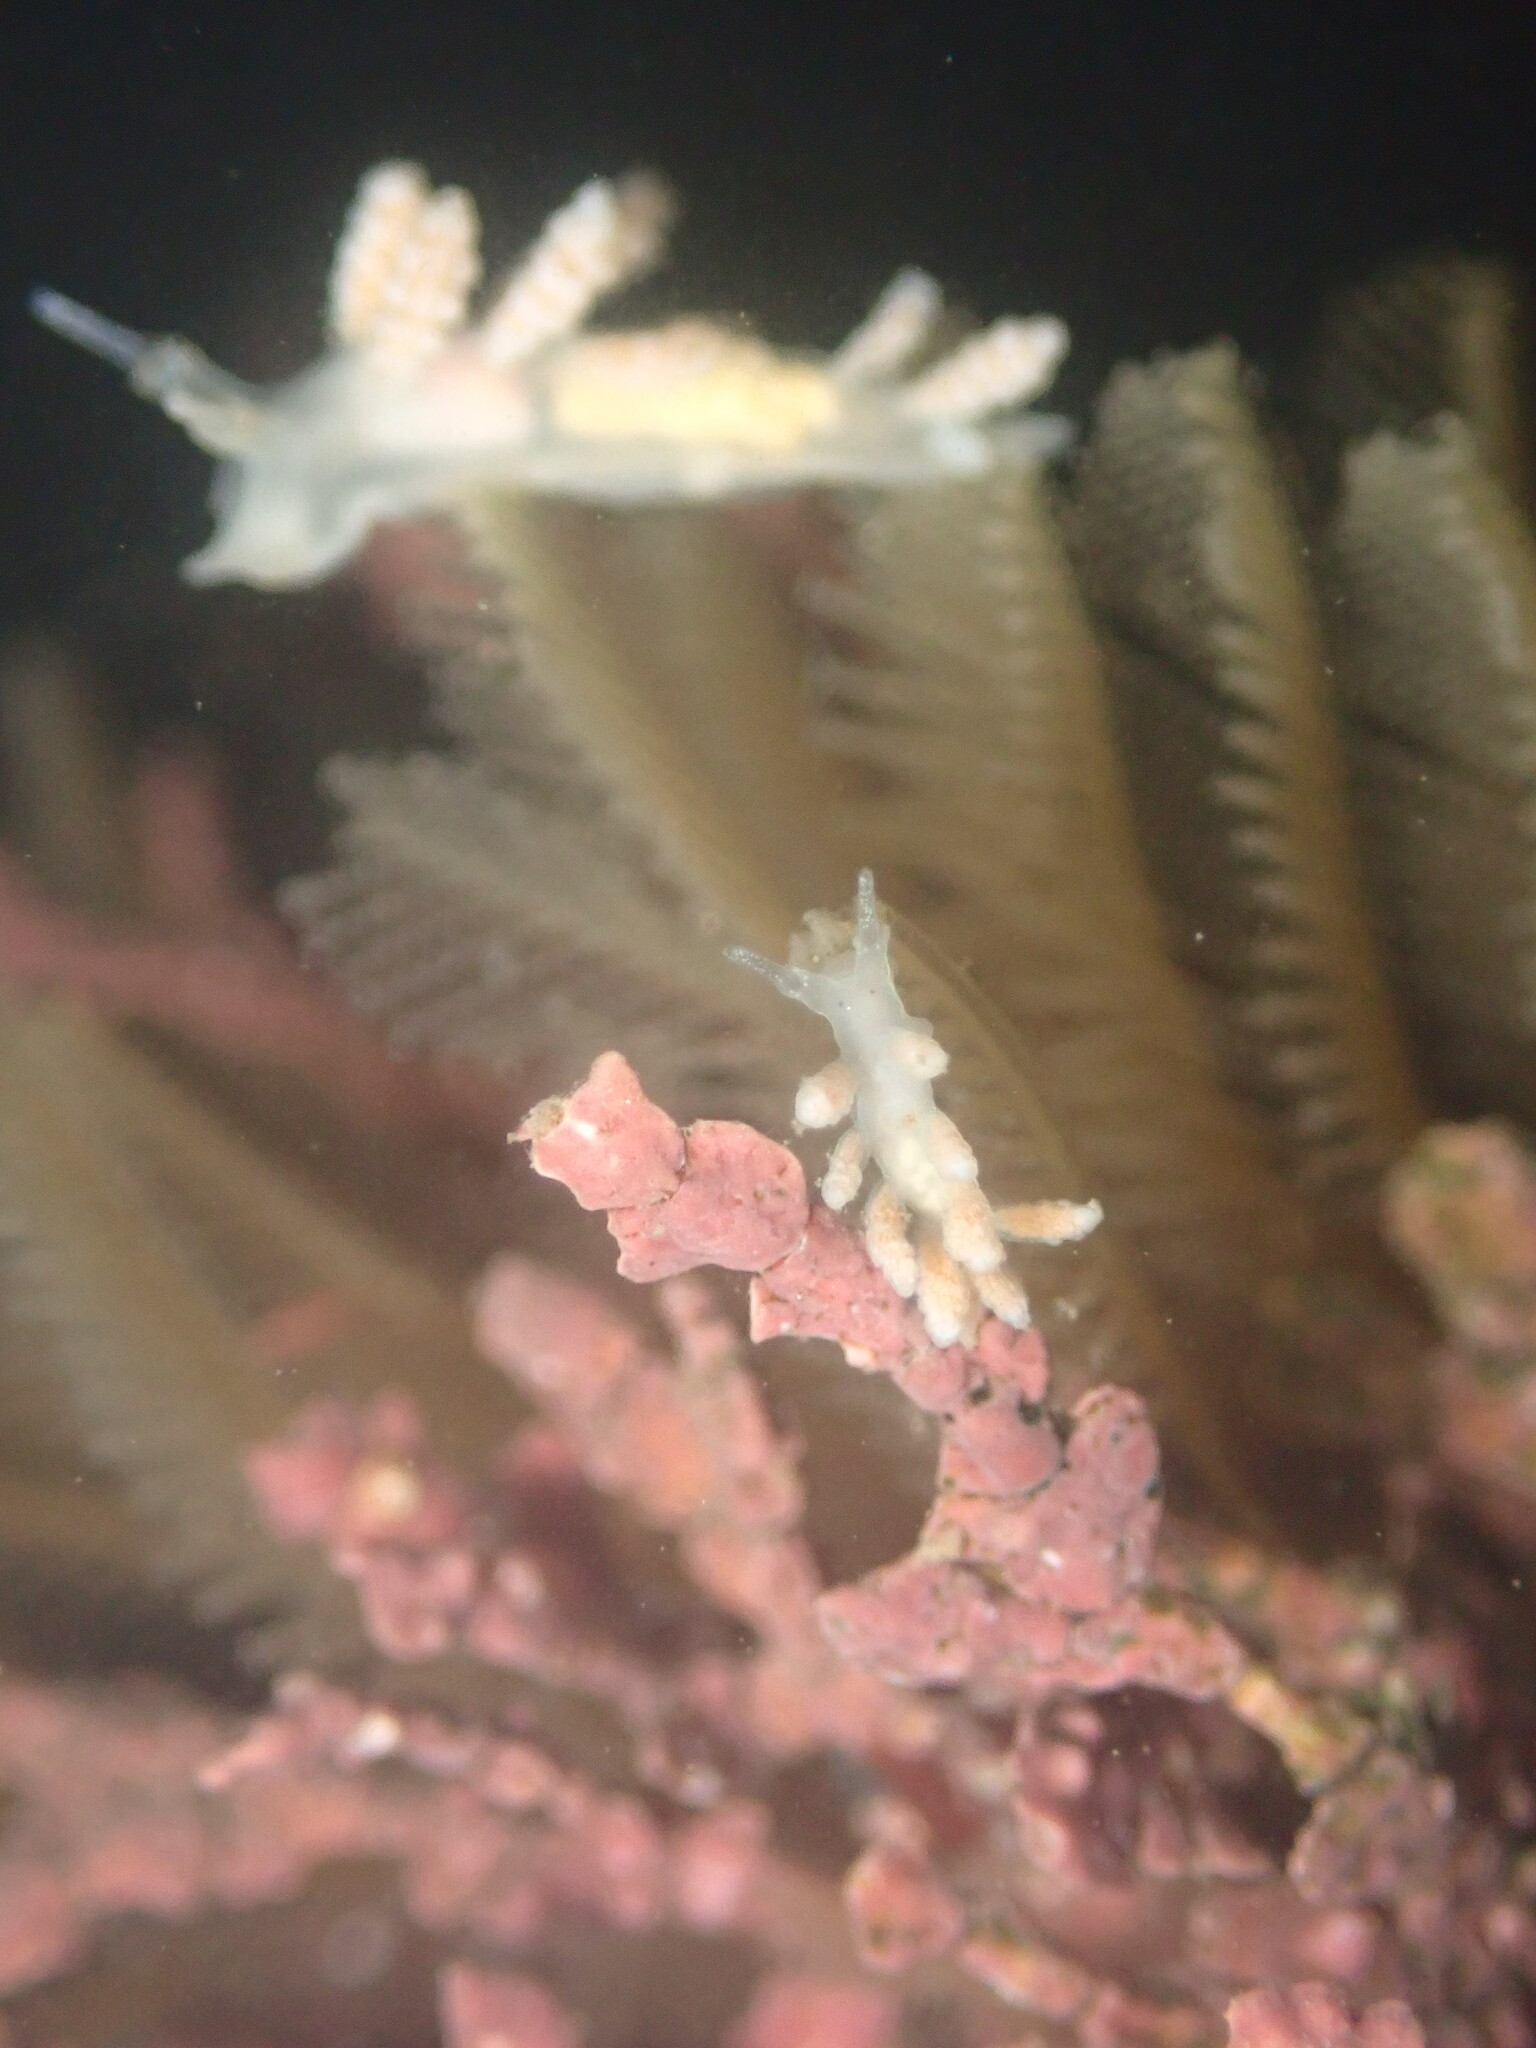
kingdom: Animalia
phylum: Mollusca
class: Gastropoda
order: Nudibranchia
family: Dotidae
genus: Doto
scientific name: Doto amyra
